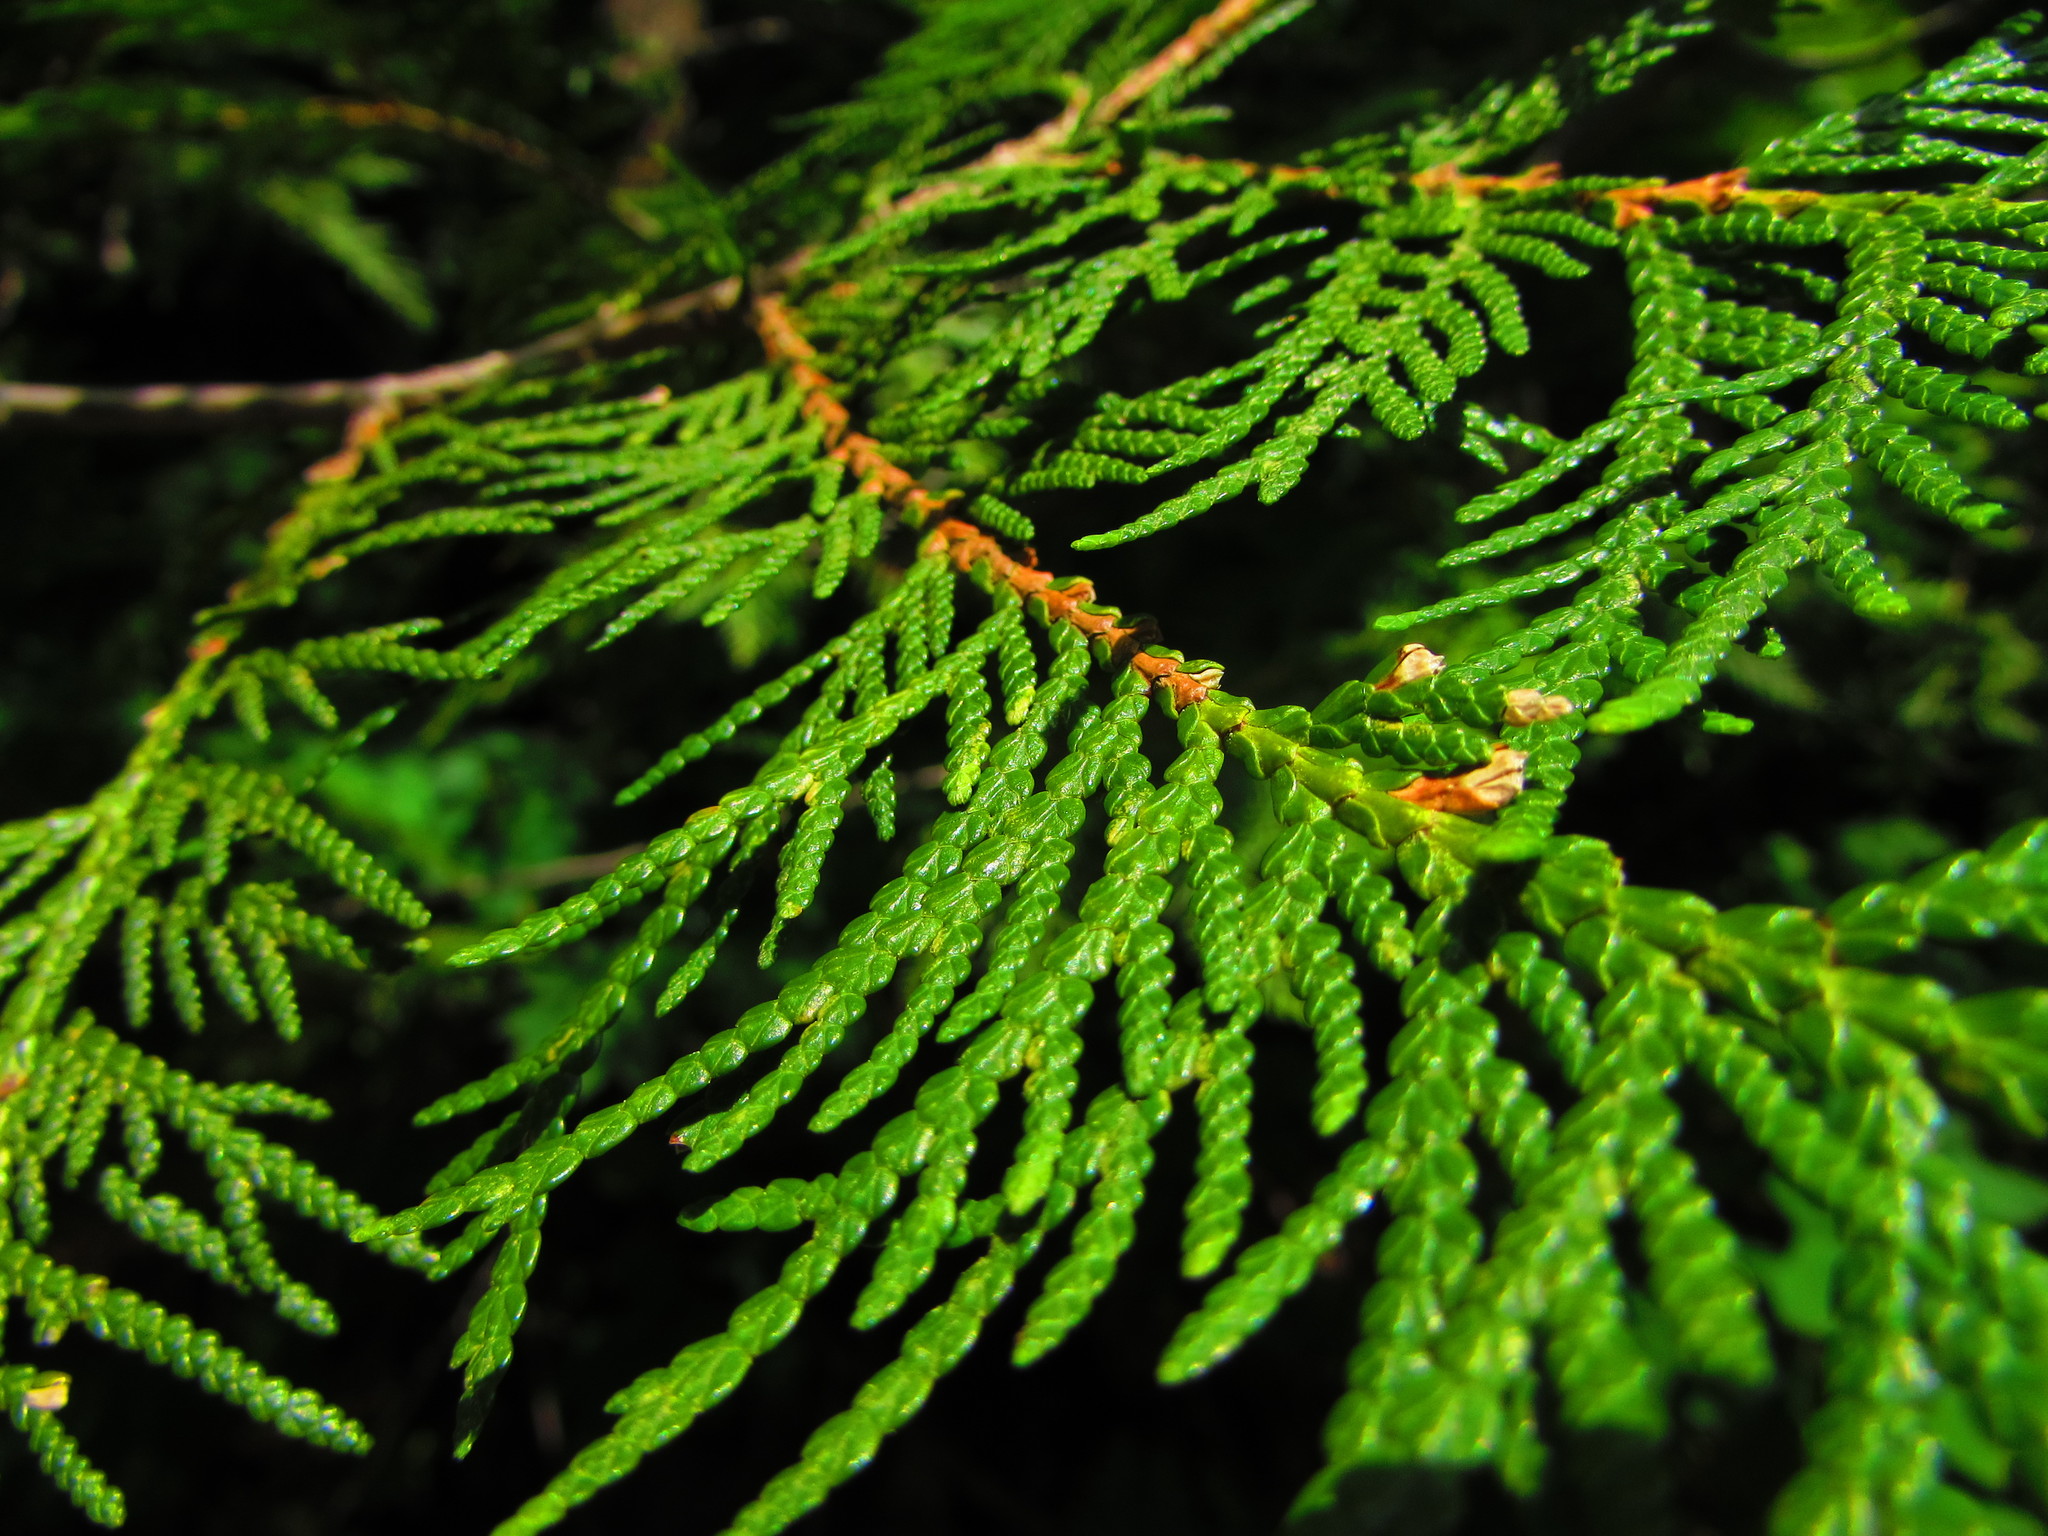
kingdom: Plantae
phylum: Tracheophyta
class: Pinopsida
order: Pinales
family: Cupressaceae
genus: Thuja
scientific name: Thuja occidentalis
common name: Northern white-cedar
